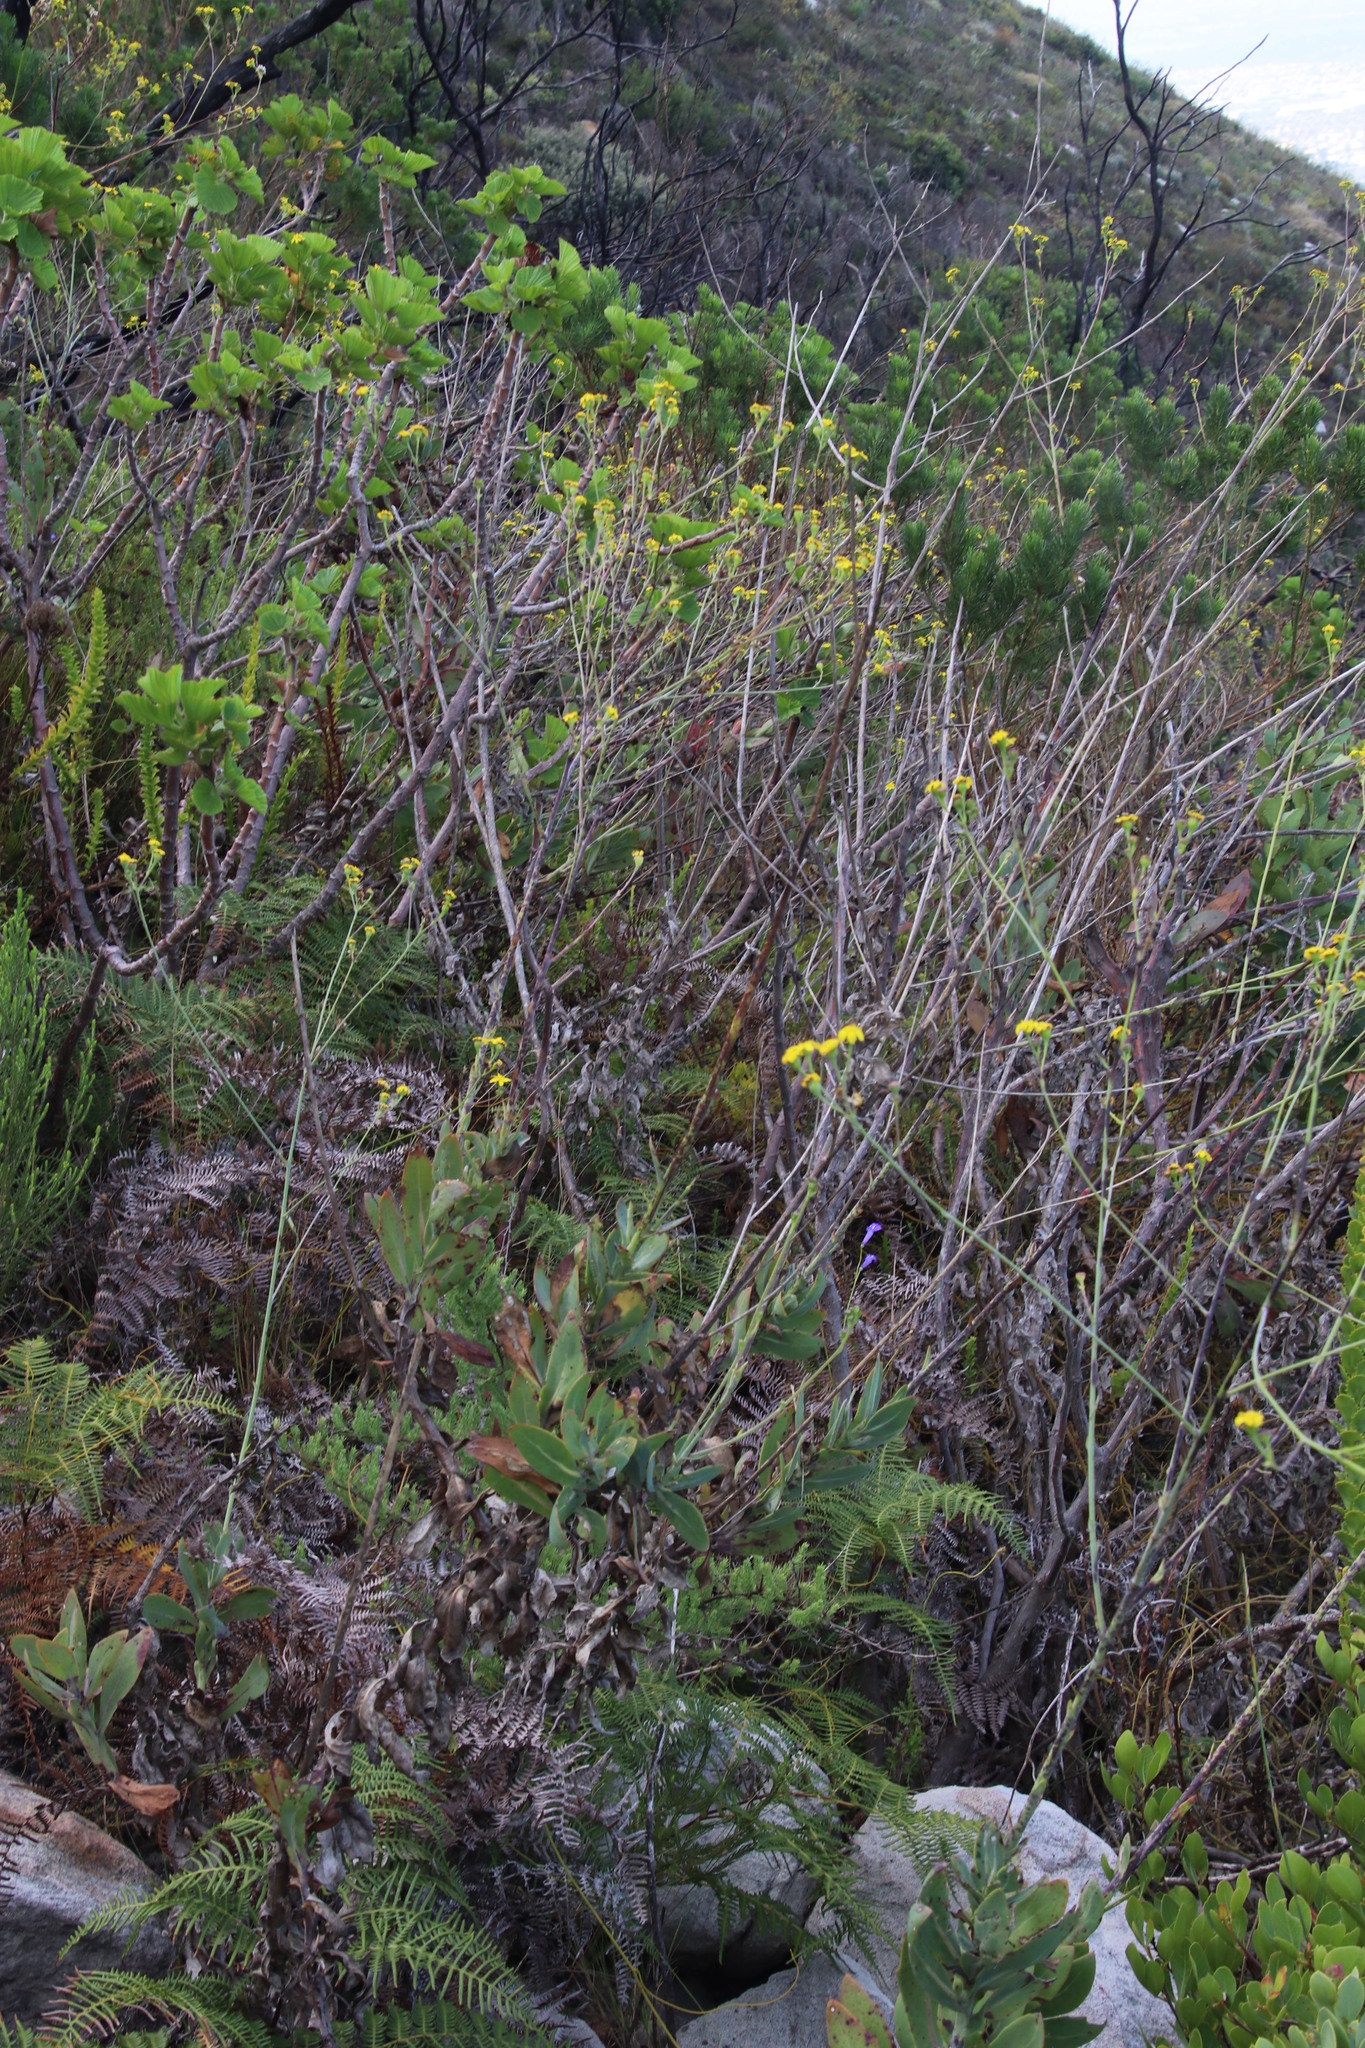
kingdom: Plantae
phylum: Tracheophyta
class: Magnoliopsida
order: Asterales
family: Asteraceae
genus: Othonna
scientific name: Othonna quinquedentata
